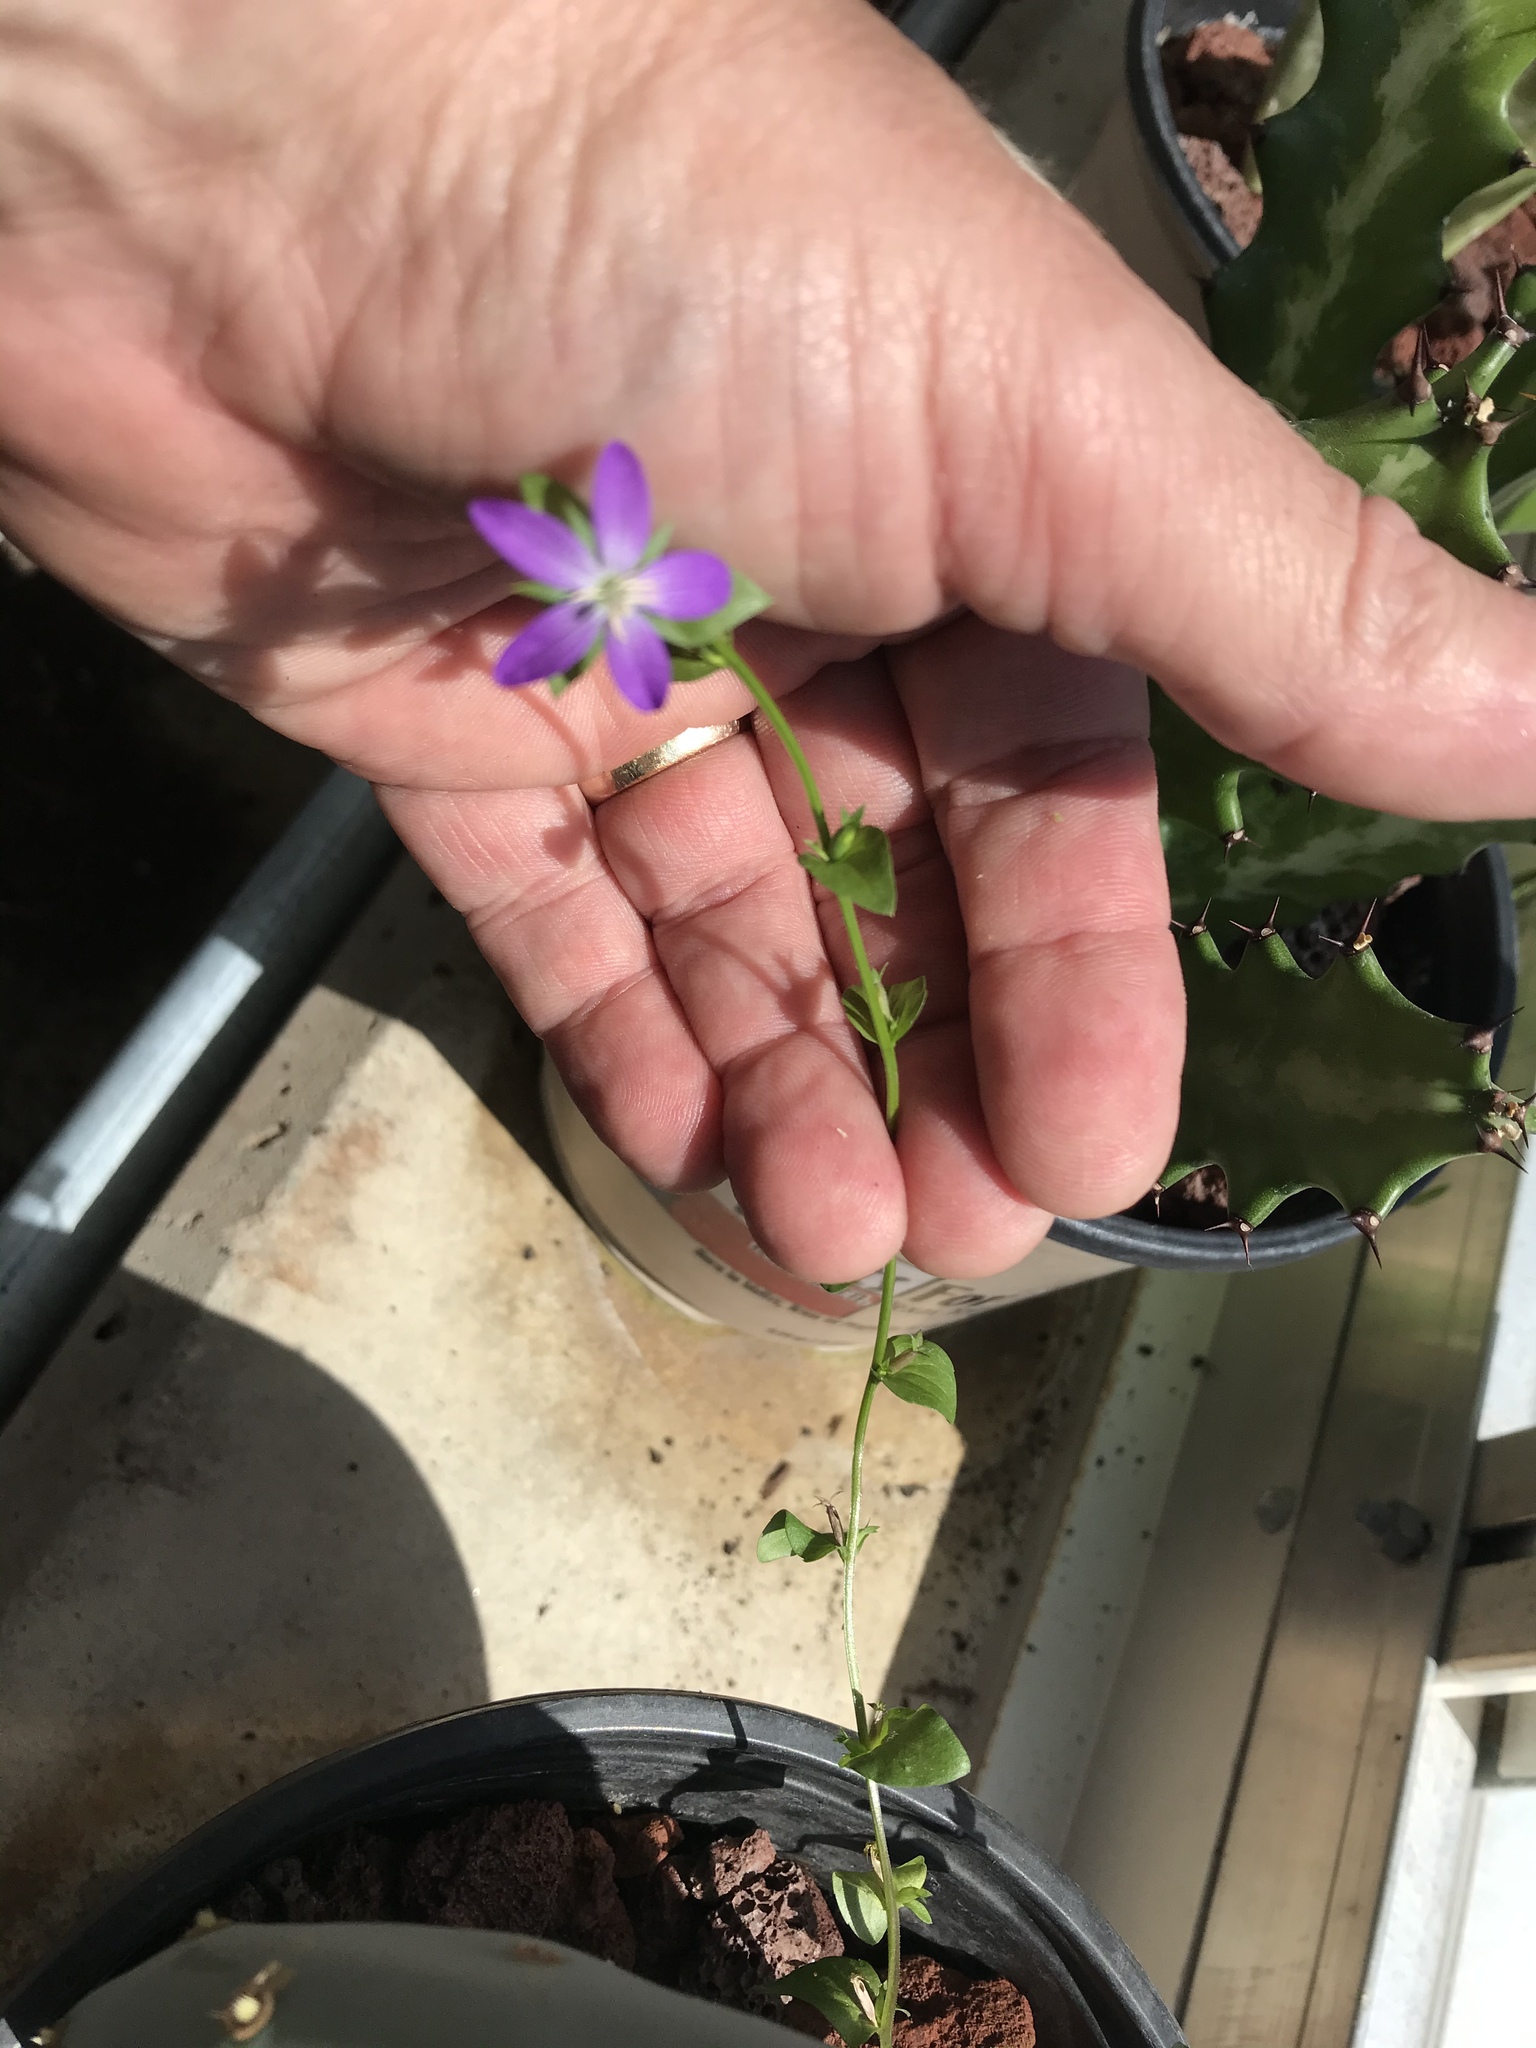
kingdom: Plantae
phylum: Tracheophyta
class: Magnoliopsida
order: Asterales
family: Campanulaceae
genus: Triodanis
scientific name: Triodanis biflora
